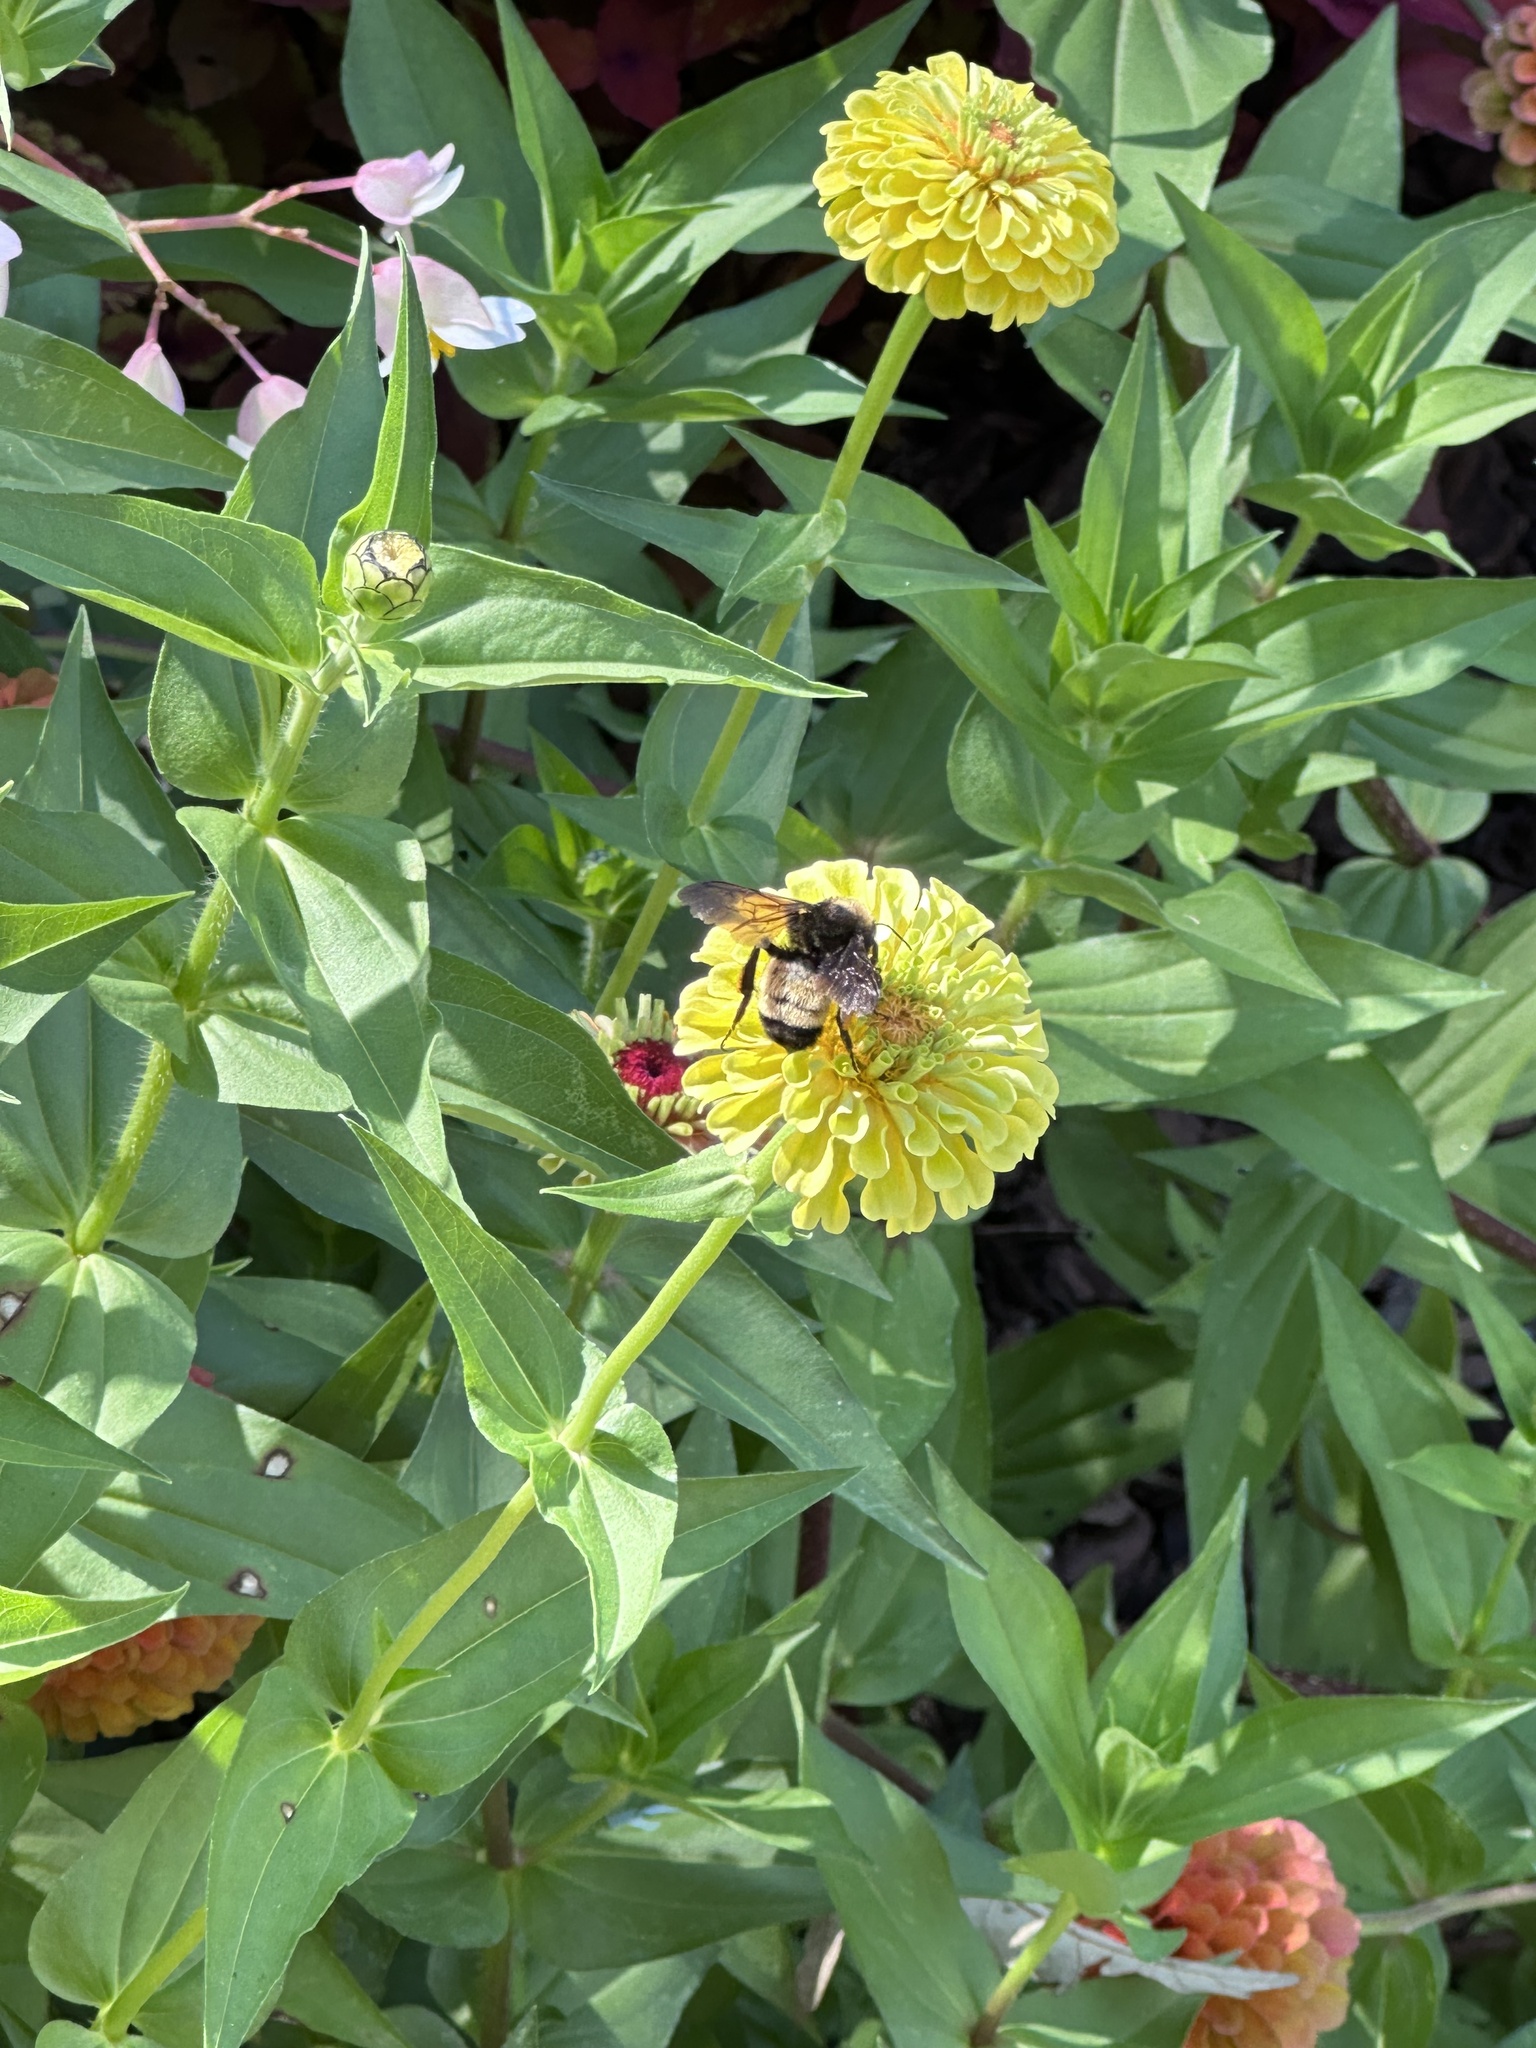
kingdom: Animalia
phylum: Arthropoda
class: Insecta
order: Hymenoptera
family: Apidae
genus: Bombus
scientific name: Bombus pensylvanicus
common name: Bumble bee
